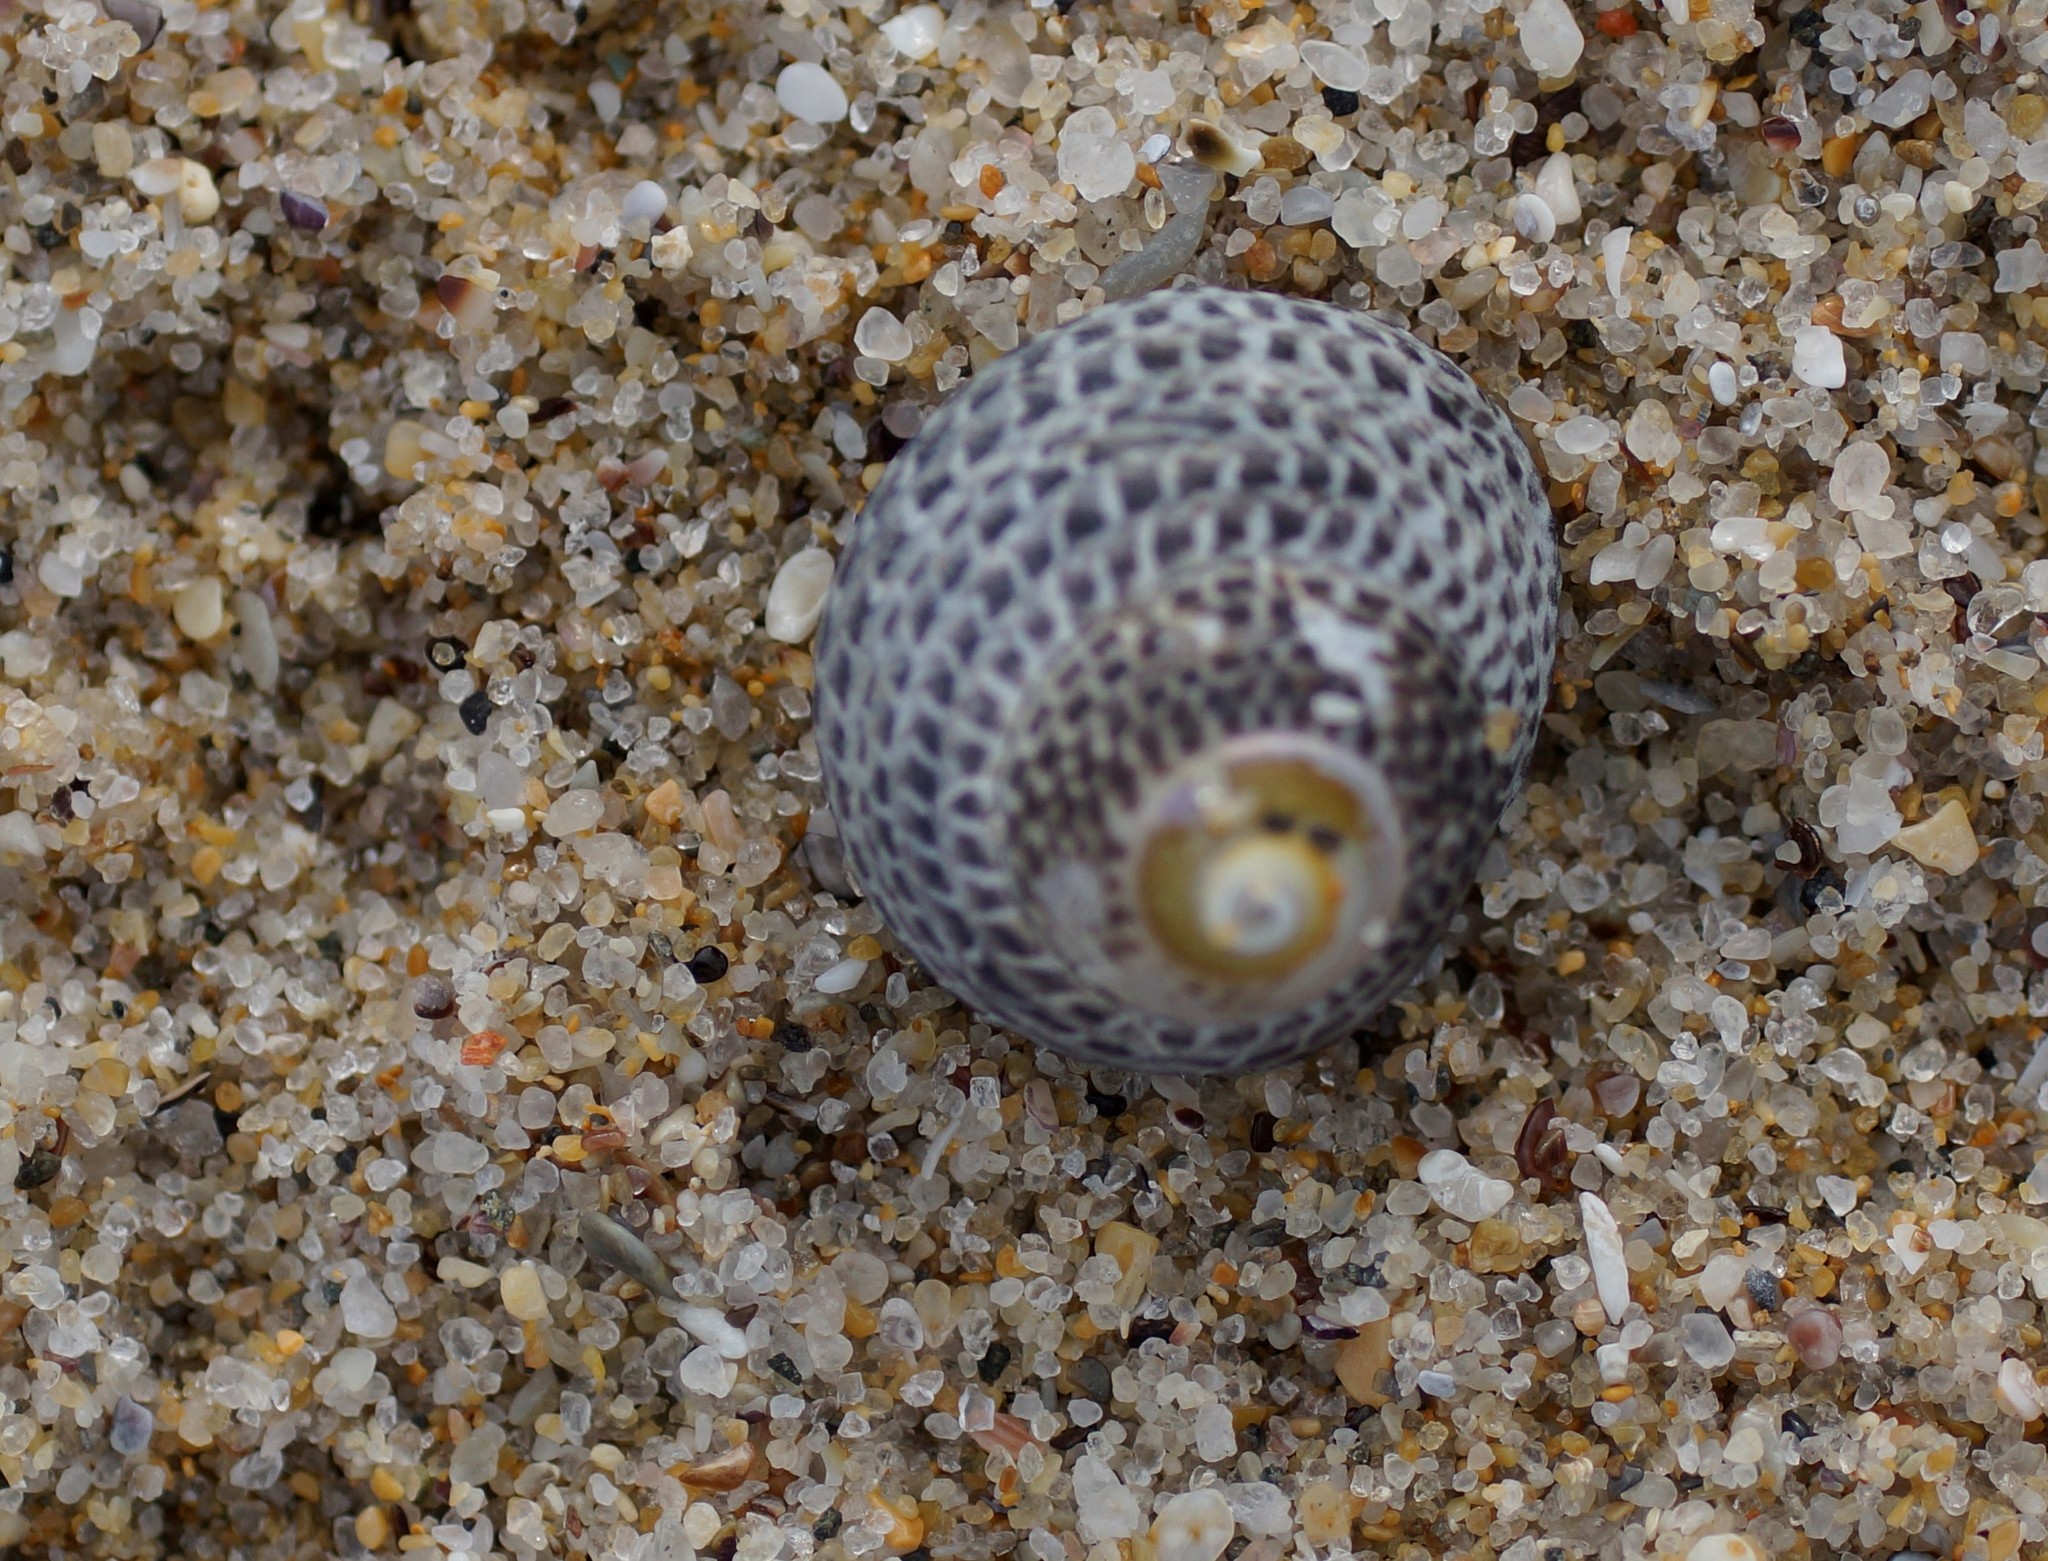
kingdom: Animalia
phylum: Mollusca
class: Gastropoda
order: Trochida
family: Trochidae
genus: Chlorodiloma
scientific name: Chlorodiloma adelaidae
